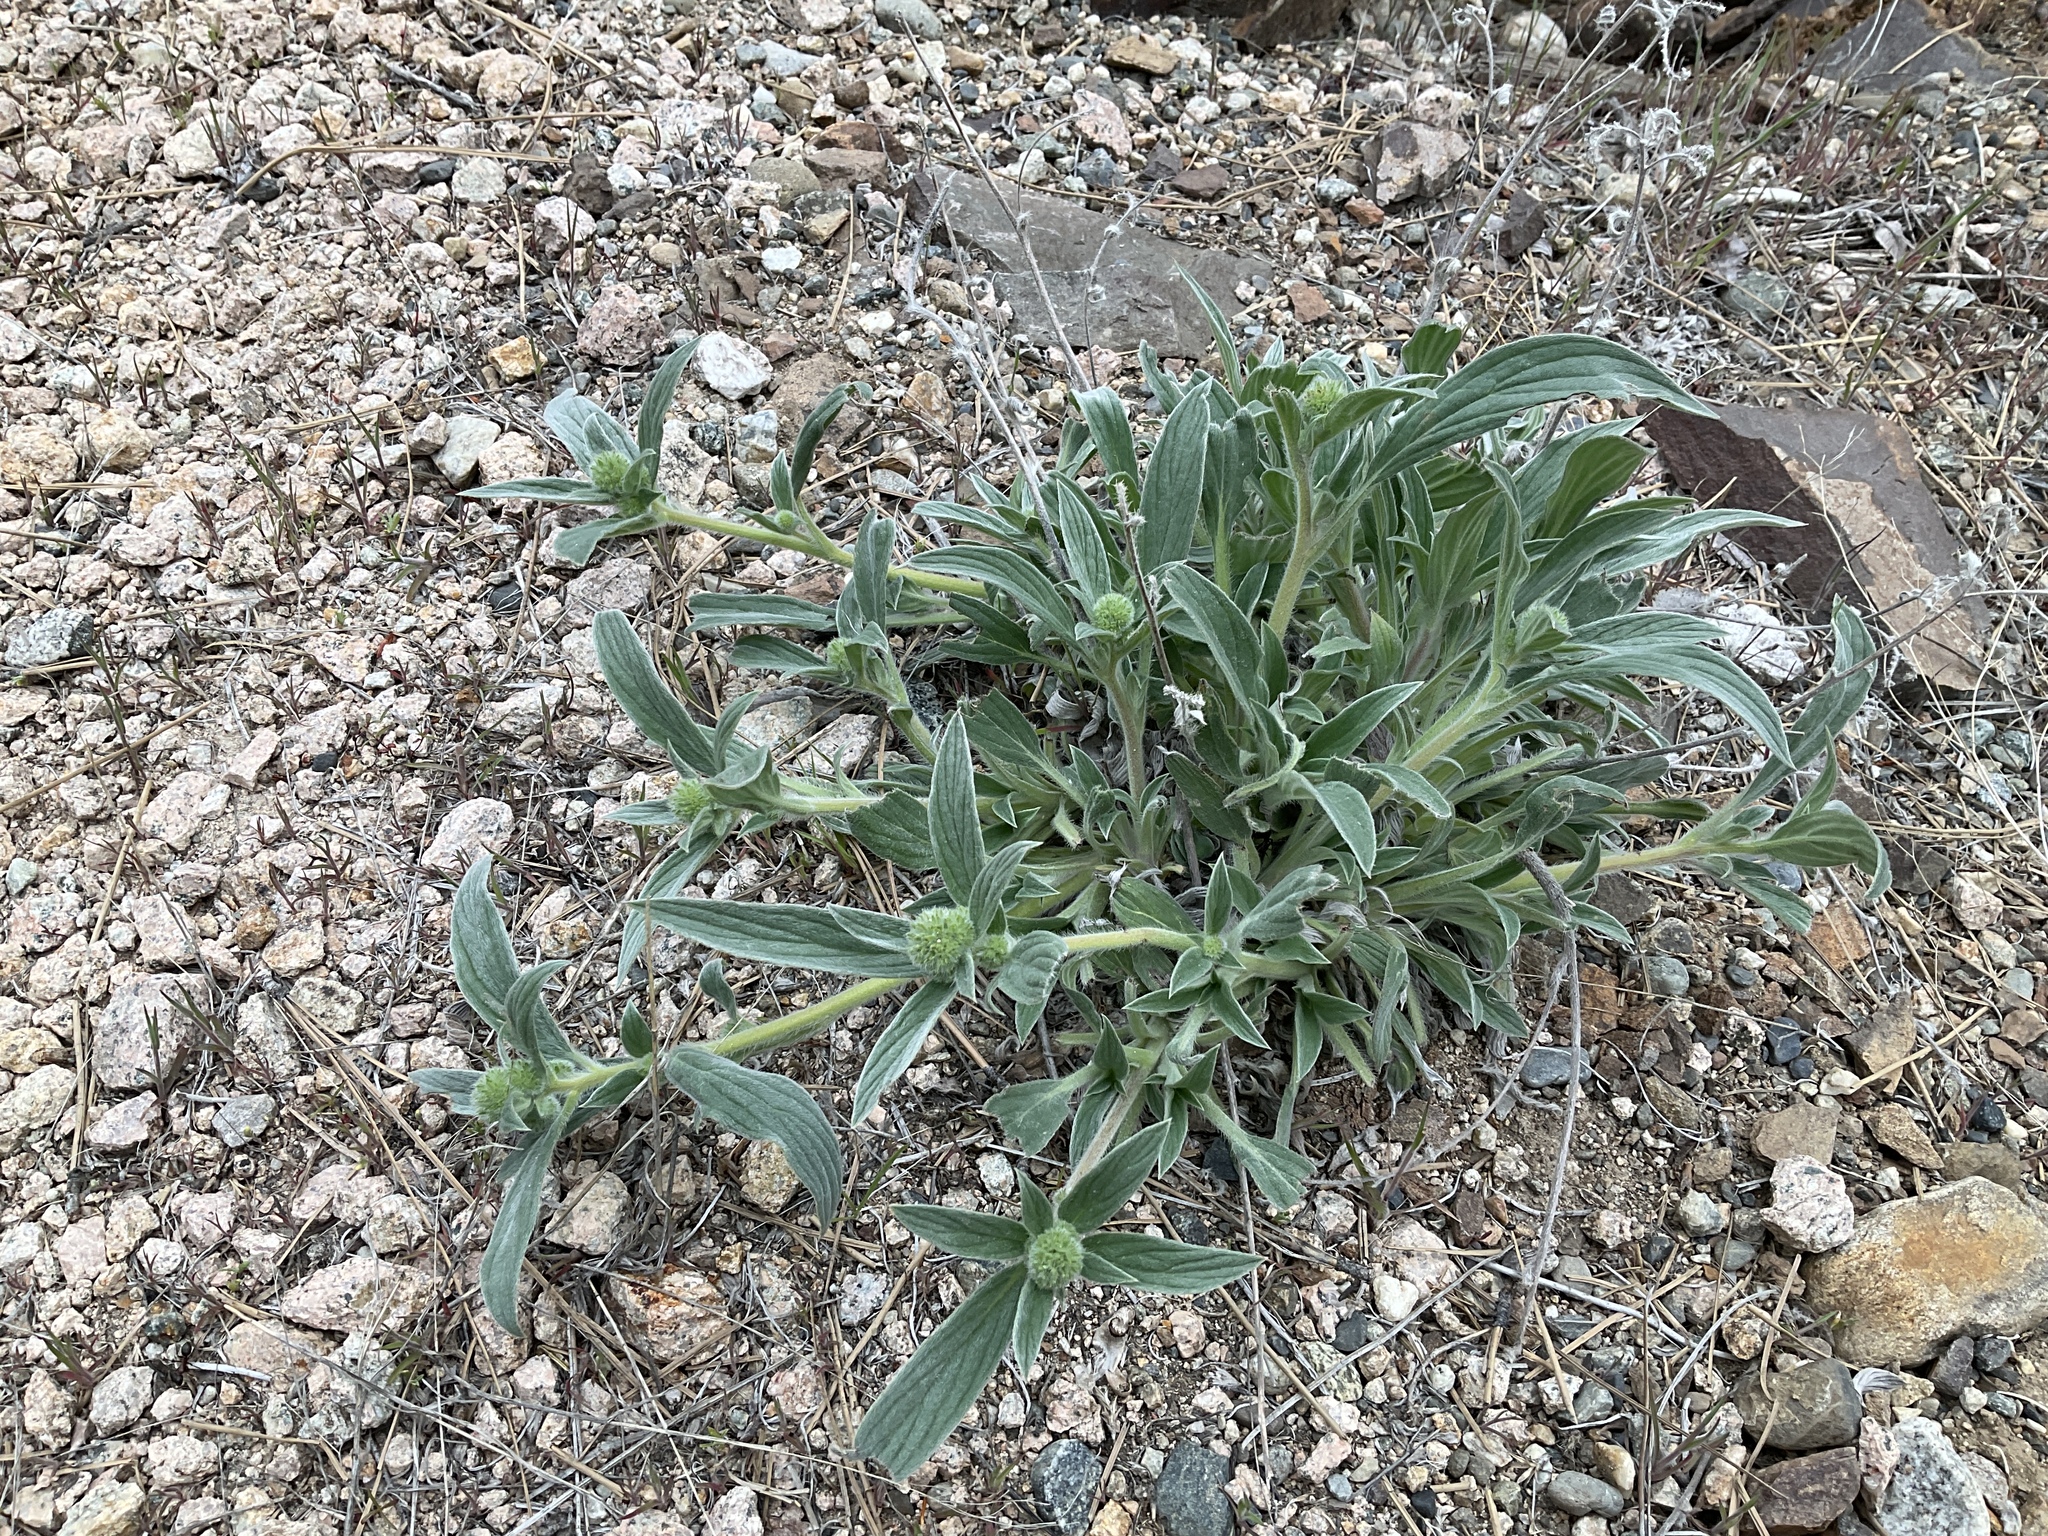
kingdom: Plantae
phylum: Tracheophyta
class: Magnoliopsida
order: Boraginales
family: Hydrophyllaceae
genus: Phacelia
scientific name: Phacelia hastata
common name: Silver-leaved phacelia
